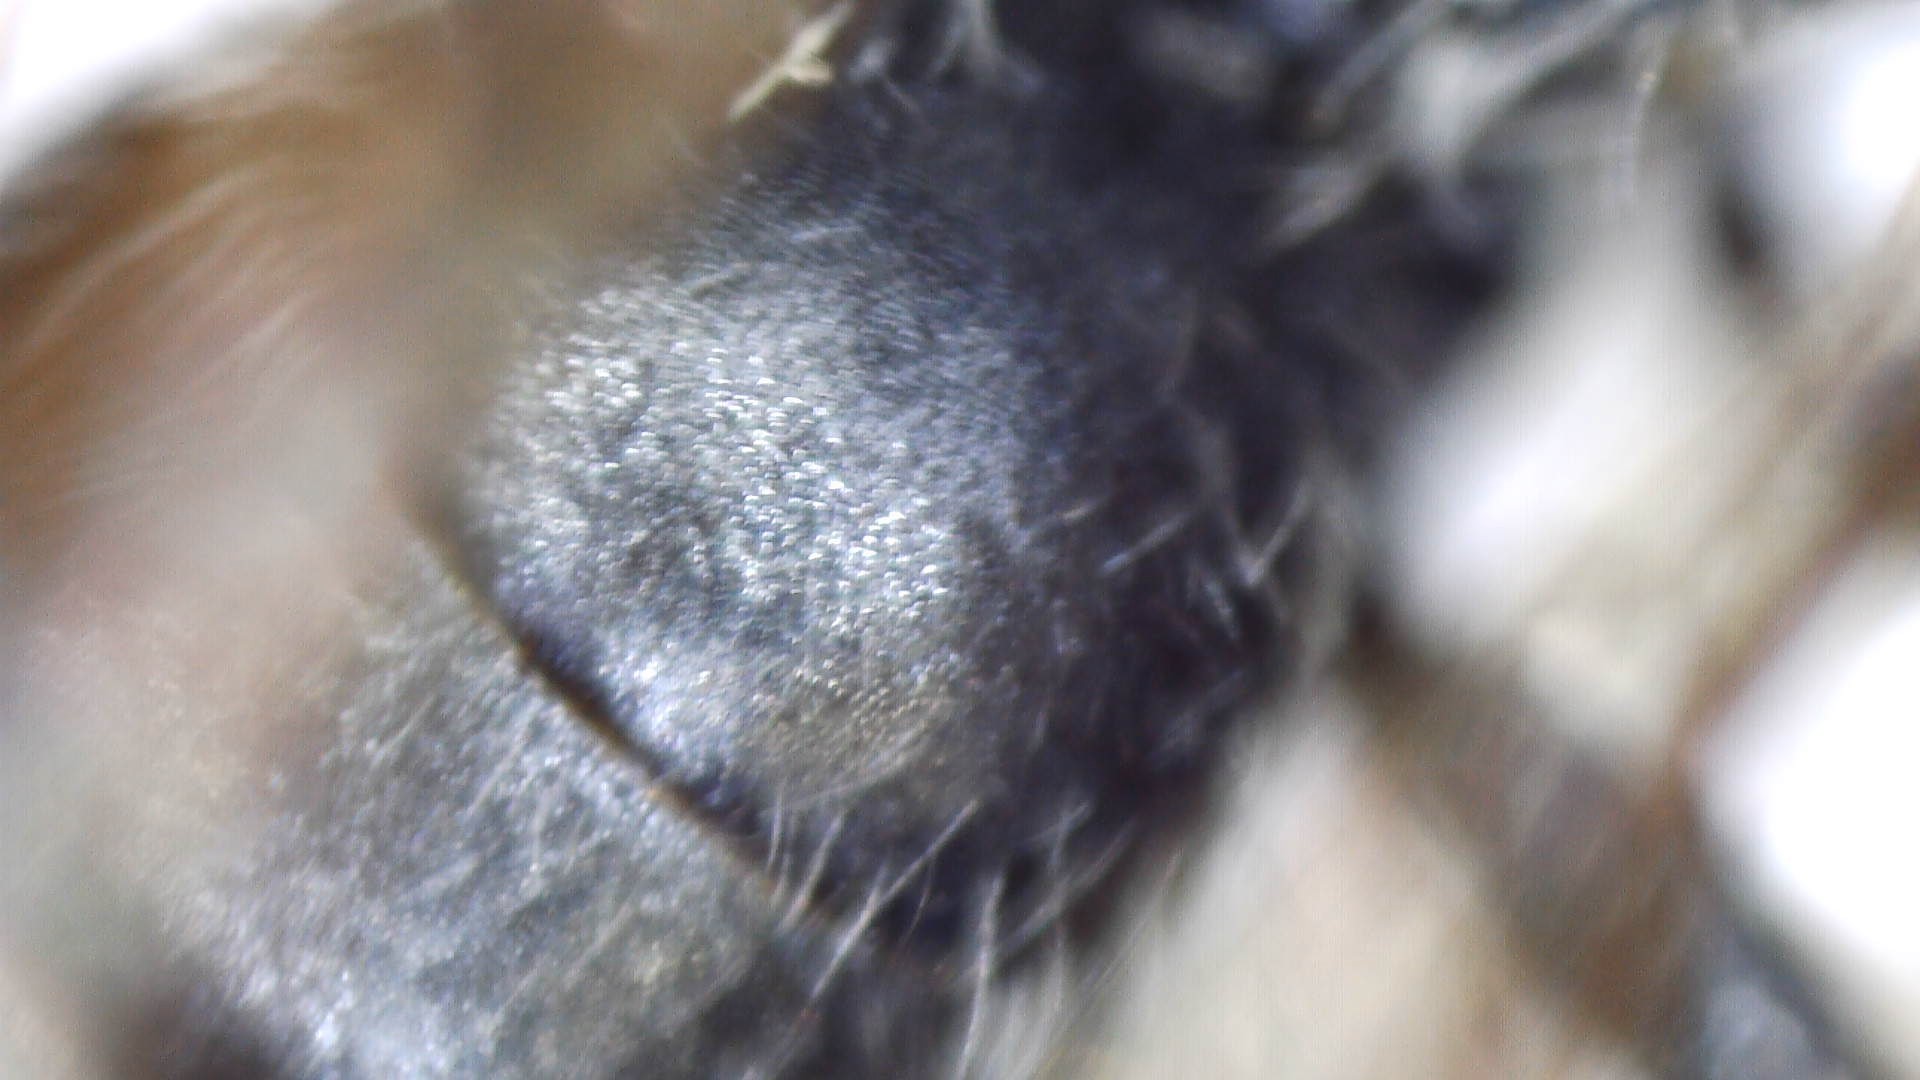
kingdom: Animalia
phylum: Arthropoda
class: Insecta
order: Hymenoptera
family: Andrenidae
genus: Andrena
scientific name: Andrena
